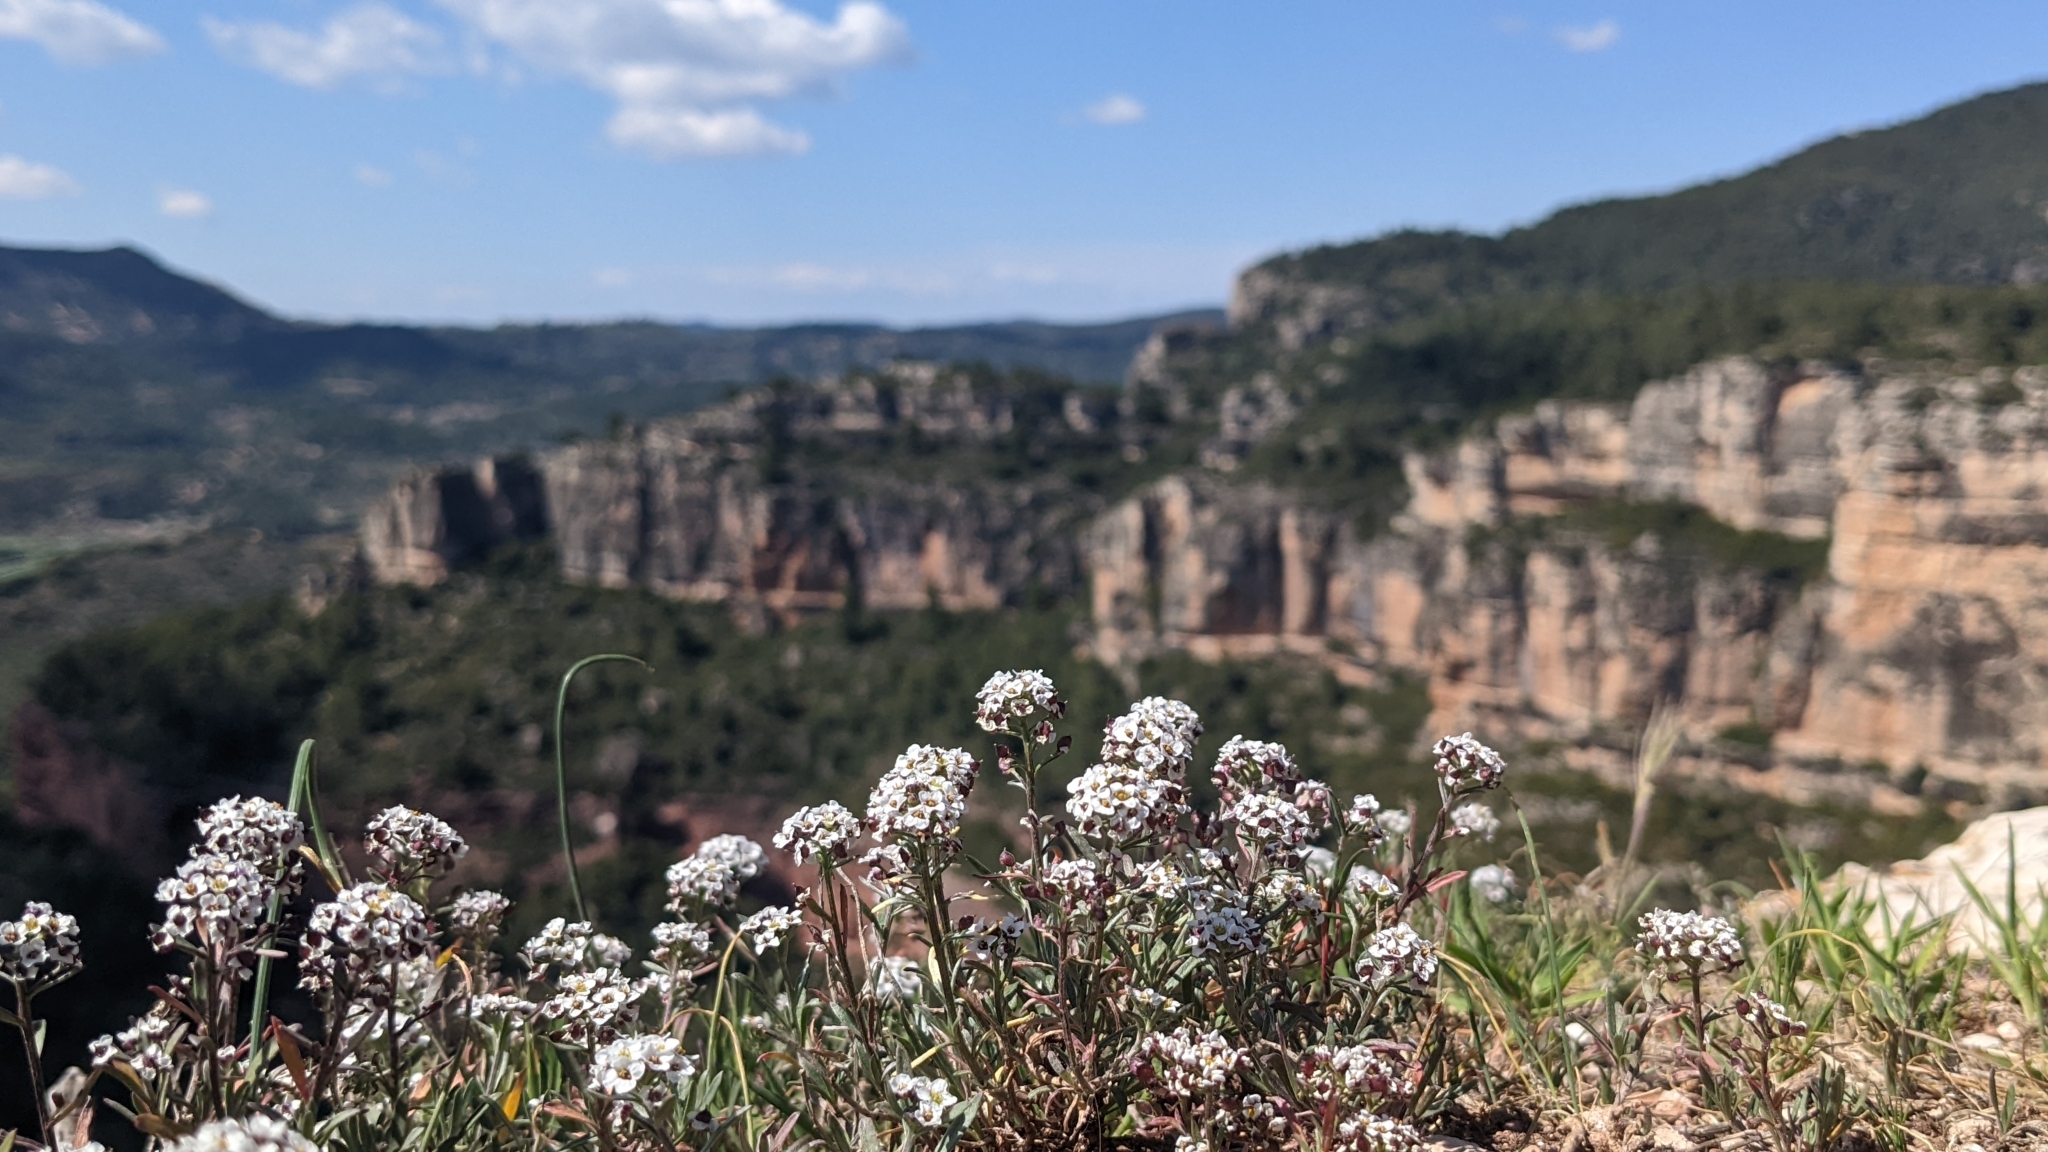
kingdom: Plantae
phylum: Tracheophyta
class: Magnoliopsida
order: Brassicales
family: Brassicaceae
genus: Lobularia
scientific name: Lobularia maritima
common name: Sweet alison
